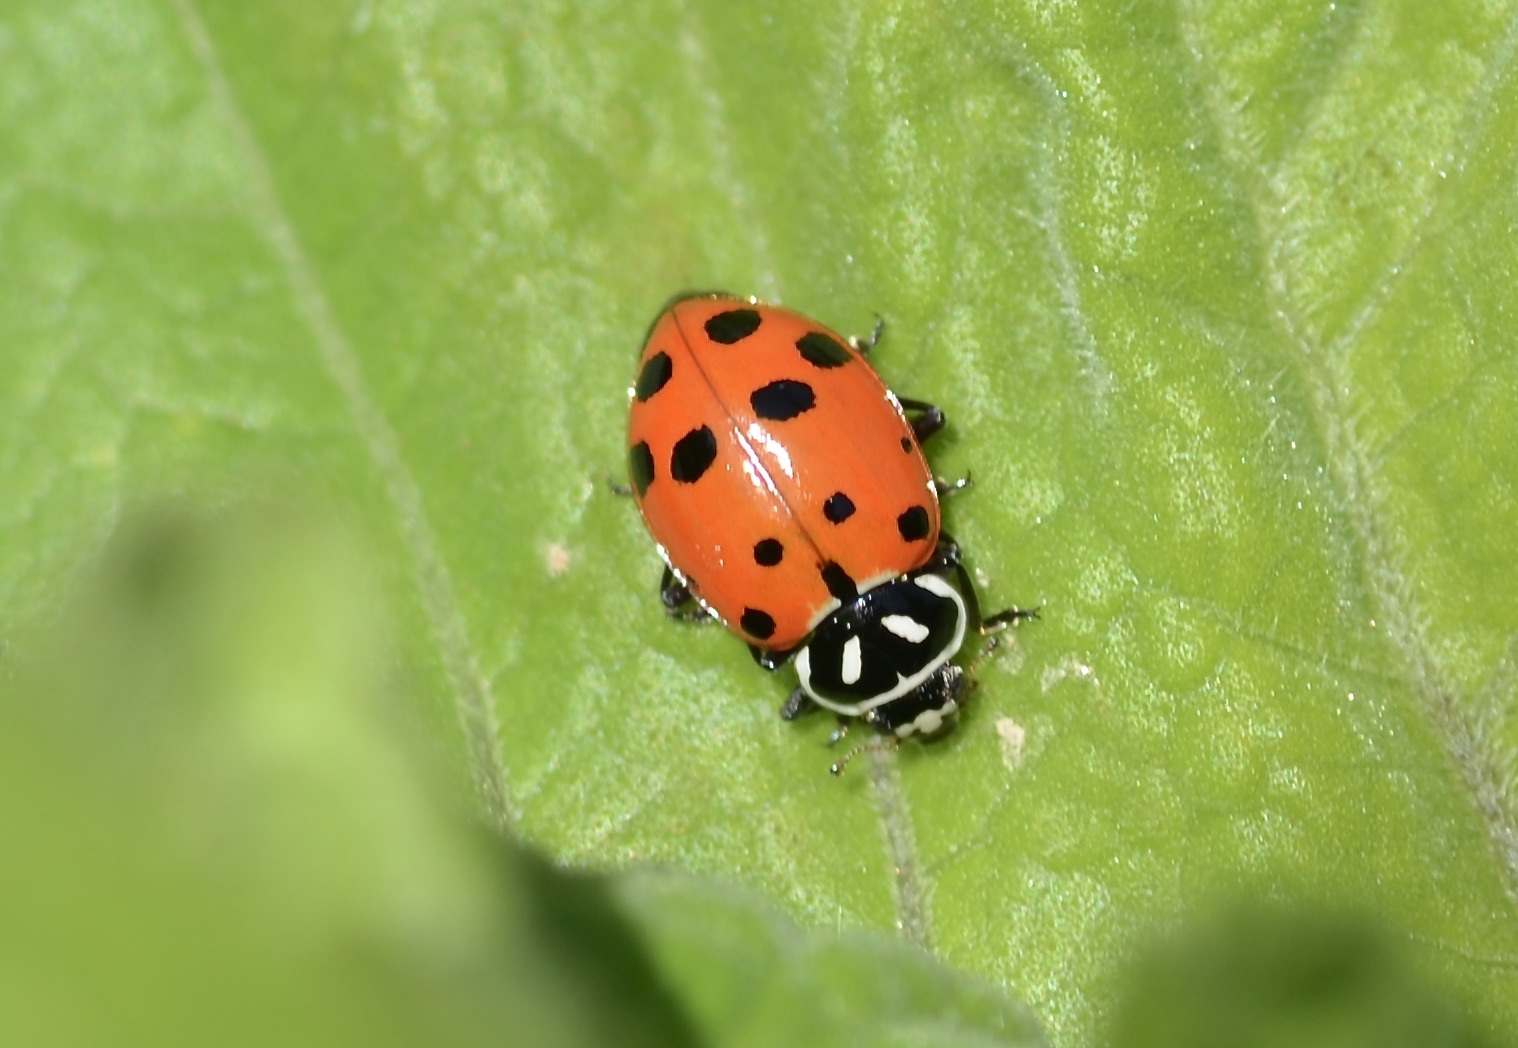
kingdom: Animalia
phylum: Arthropoda
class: Insecta
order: Coleoptera
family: Coccinellidae
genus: Hippodamia
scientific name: Hippodamia convergens
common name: Convergent lady beetle
